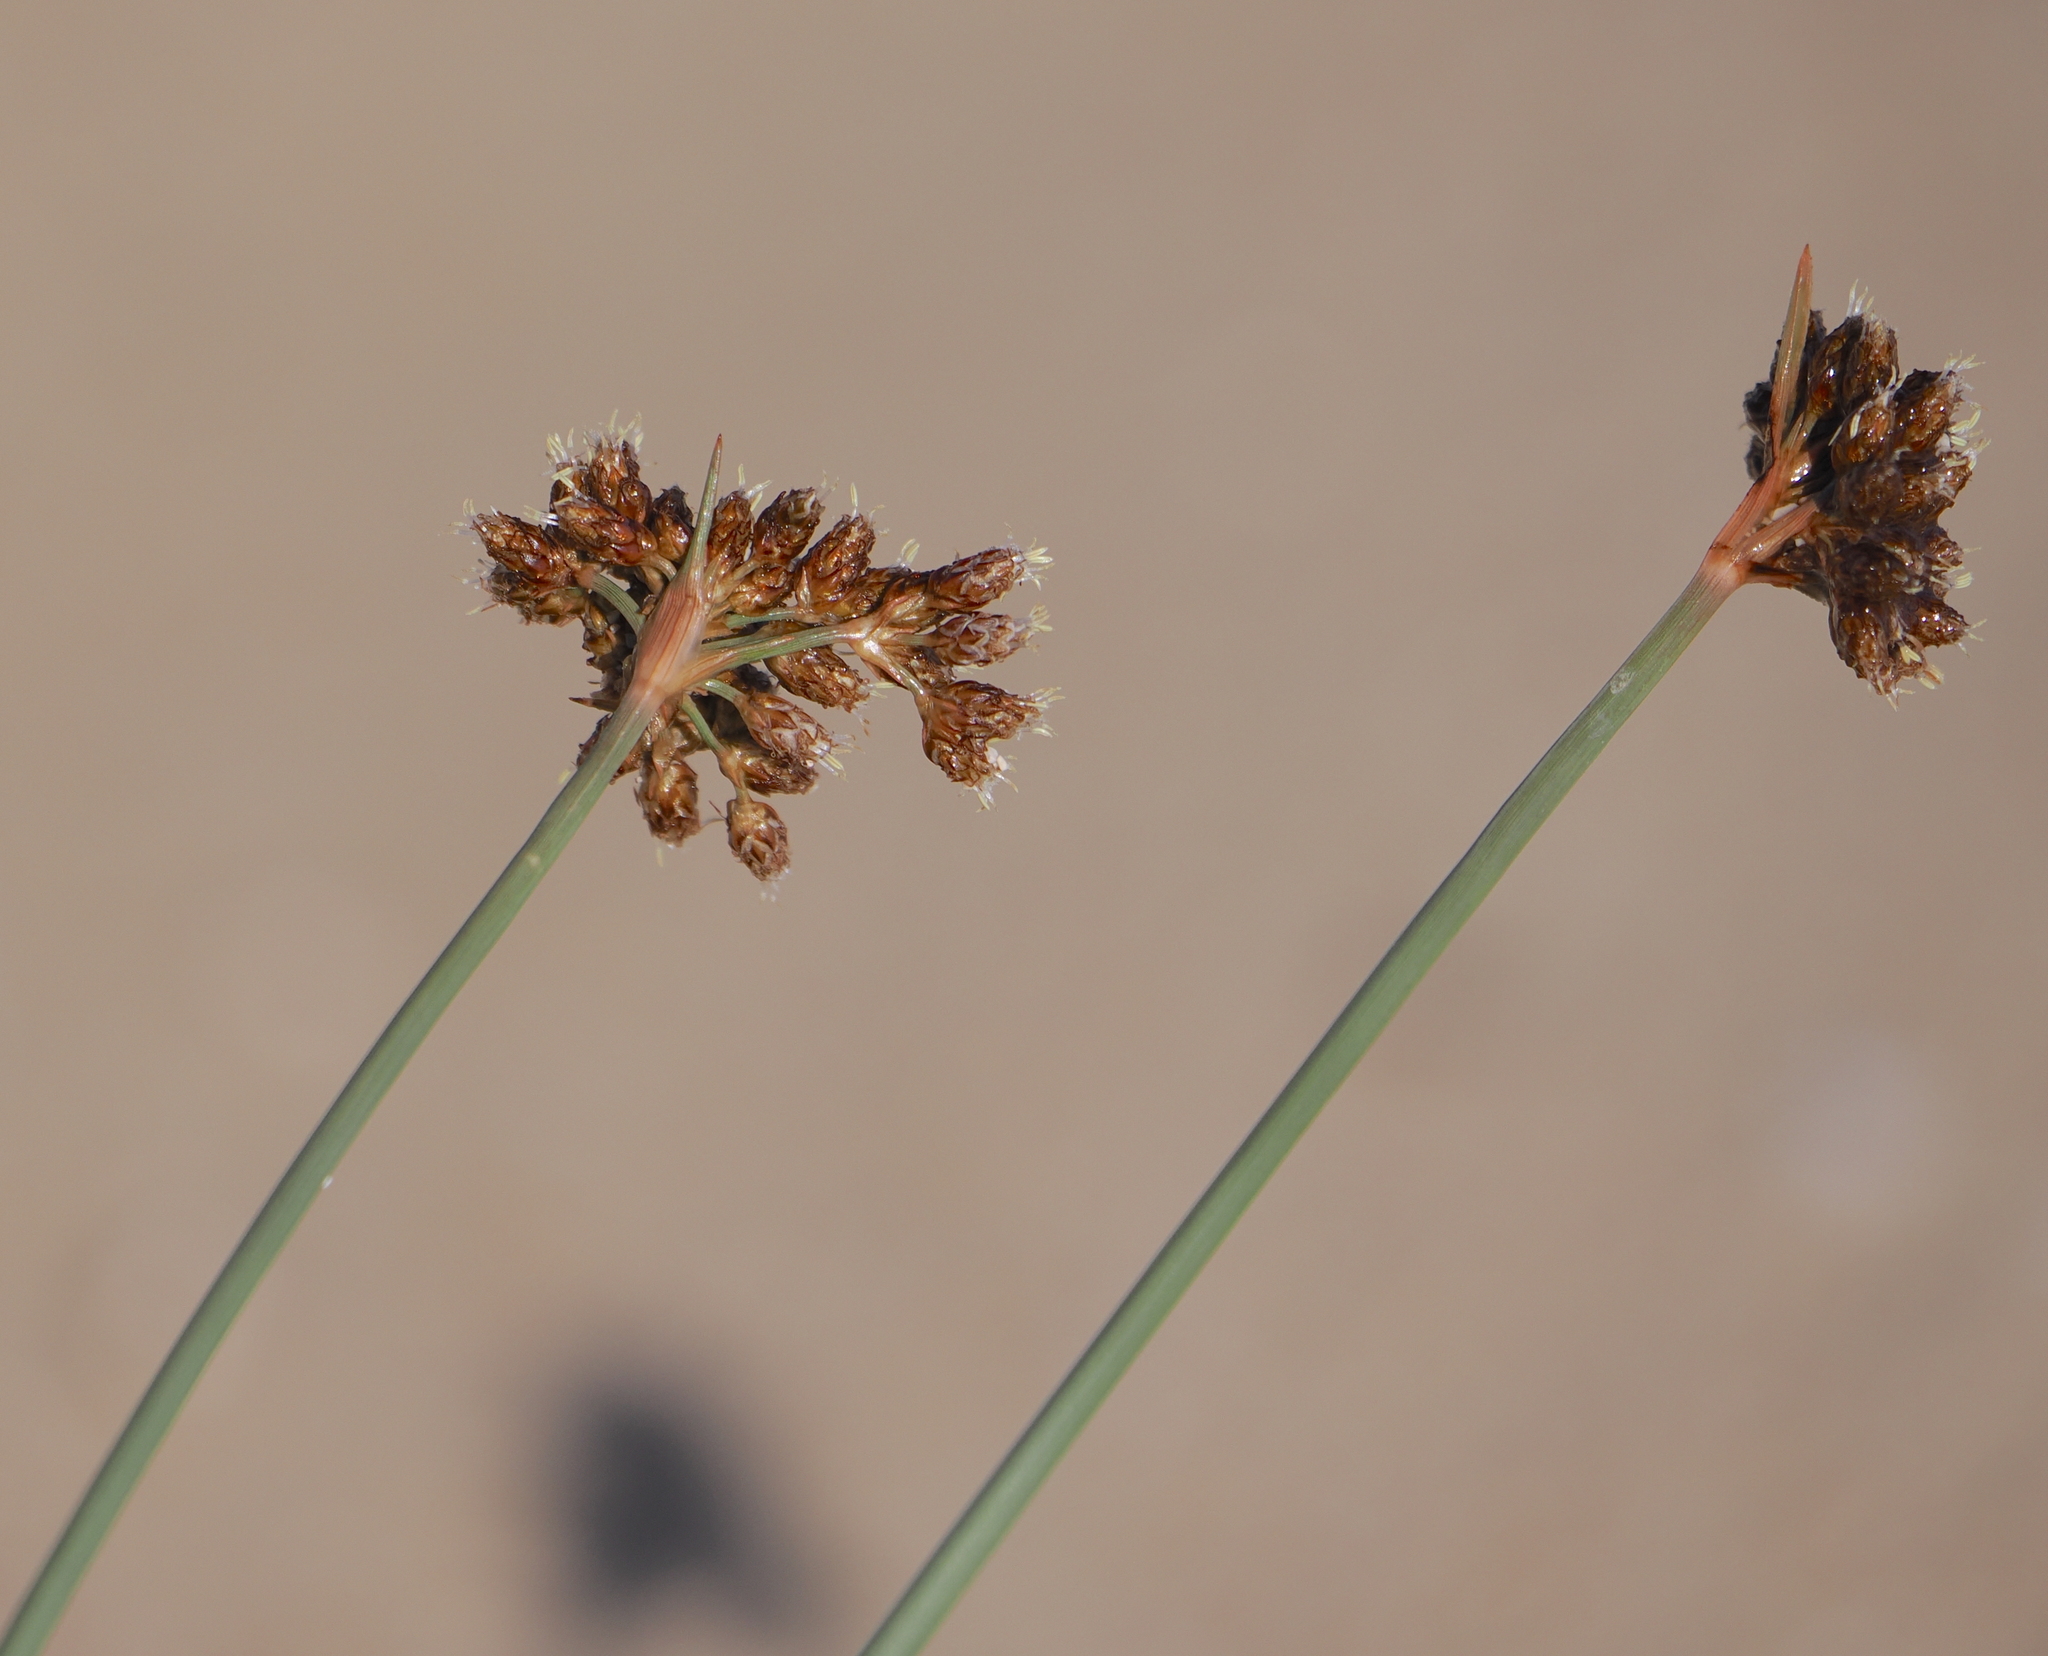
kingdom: Plantae
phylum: Tracheophyta
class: Liliopsida
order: Poales
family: Cyperaceae
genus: Fimbristylis
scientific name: Fimbristylis cymosa
